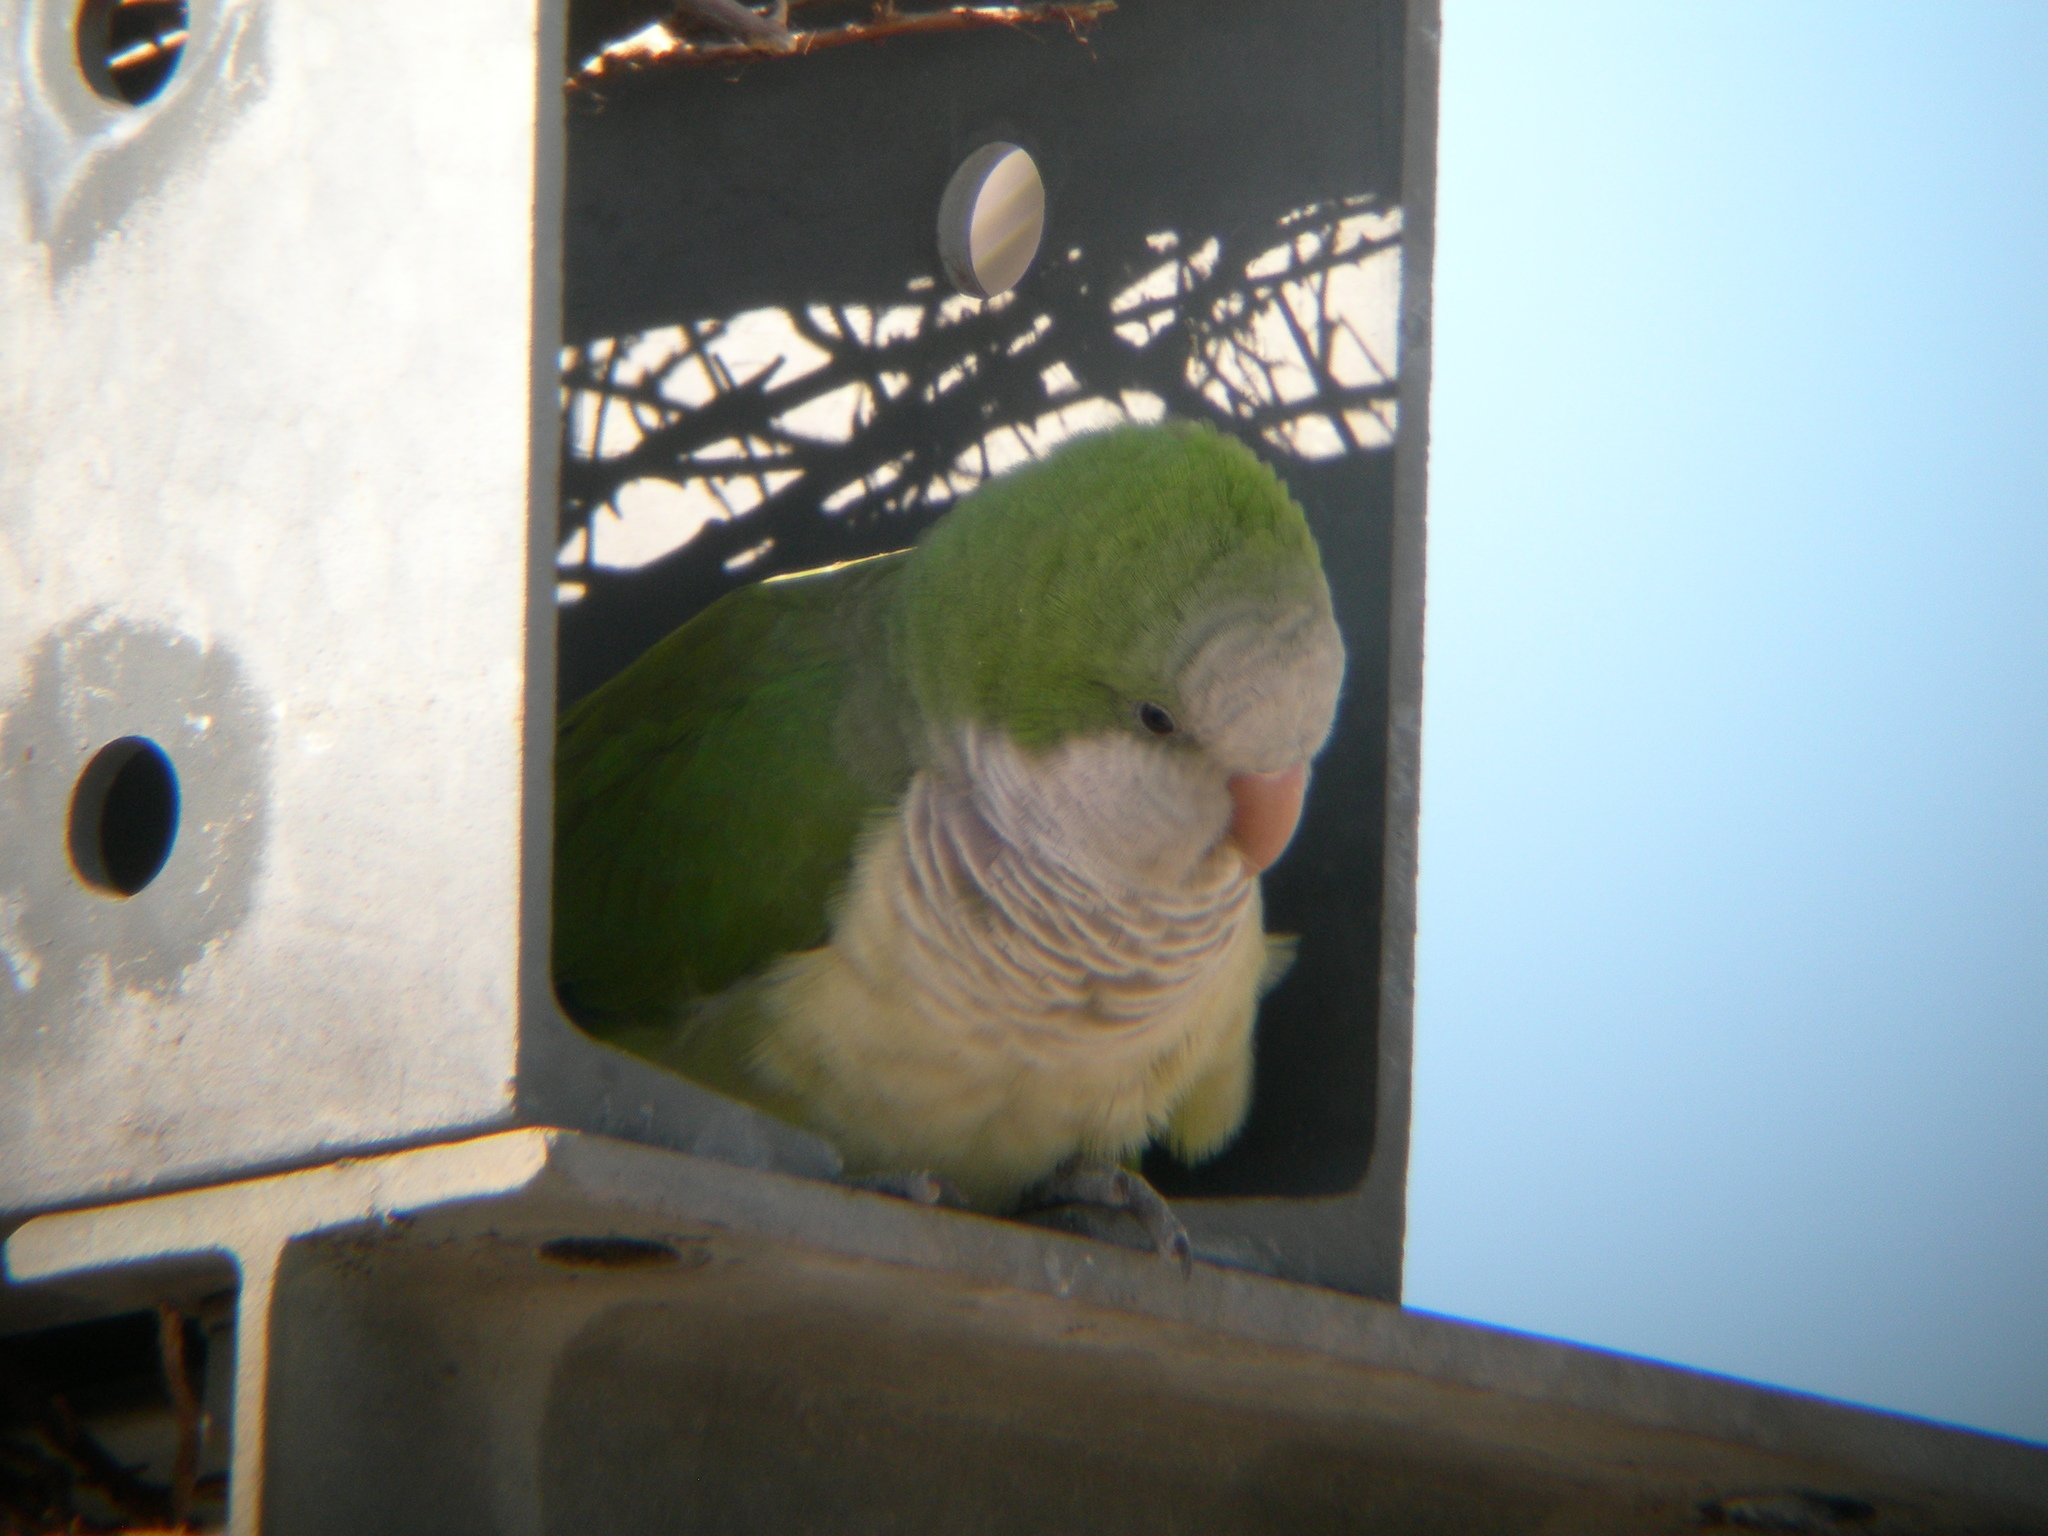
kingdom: Animalia
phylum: Chordata
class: Aves
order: Psittaciformes
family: Psittacidae
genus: Myiopsitta
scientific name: Myiopsitta monachus
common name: Monk parakeet
